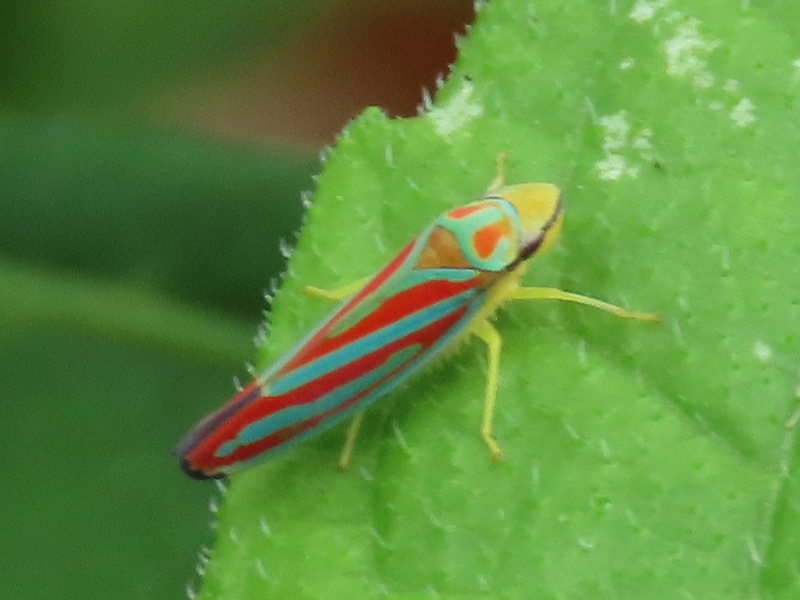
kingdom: Animalia
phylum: Arthropoda
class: Insecta
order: Hemiptera
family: Cicadellidae
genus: Graphocephala
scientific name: Graphocephala coccinea
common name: Candy-striped leafhopper
